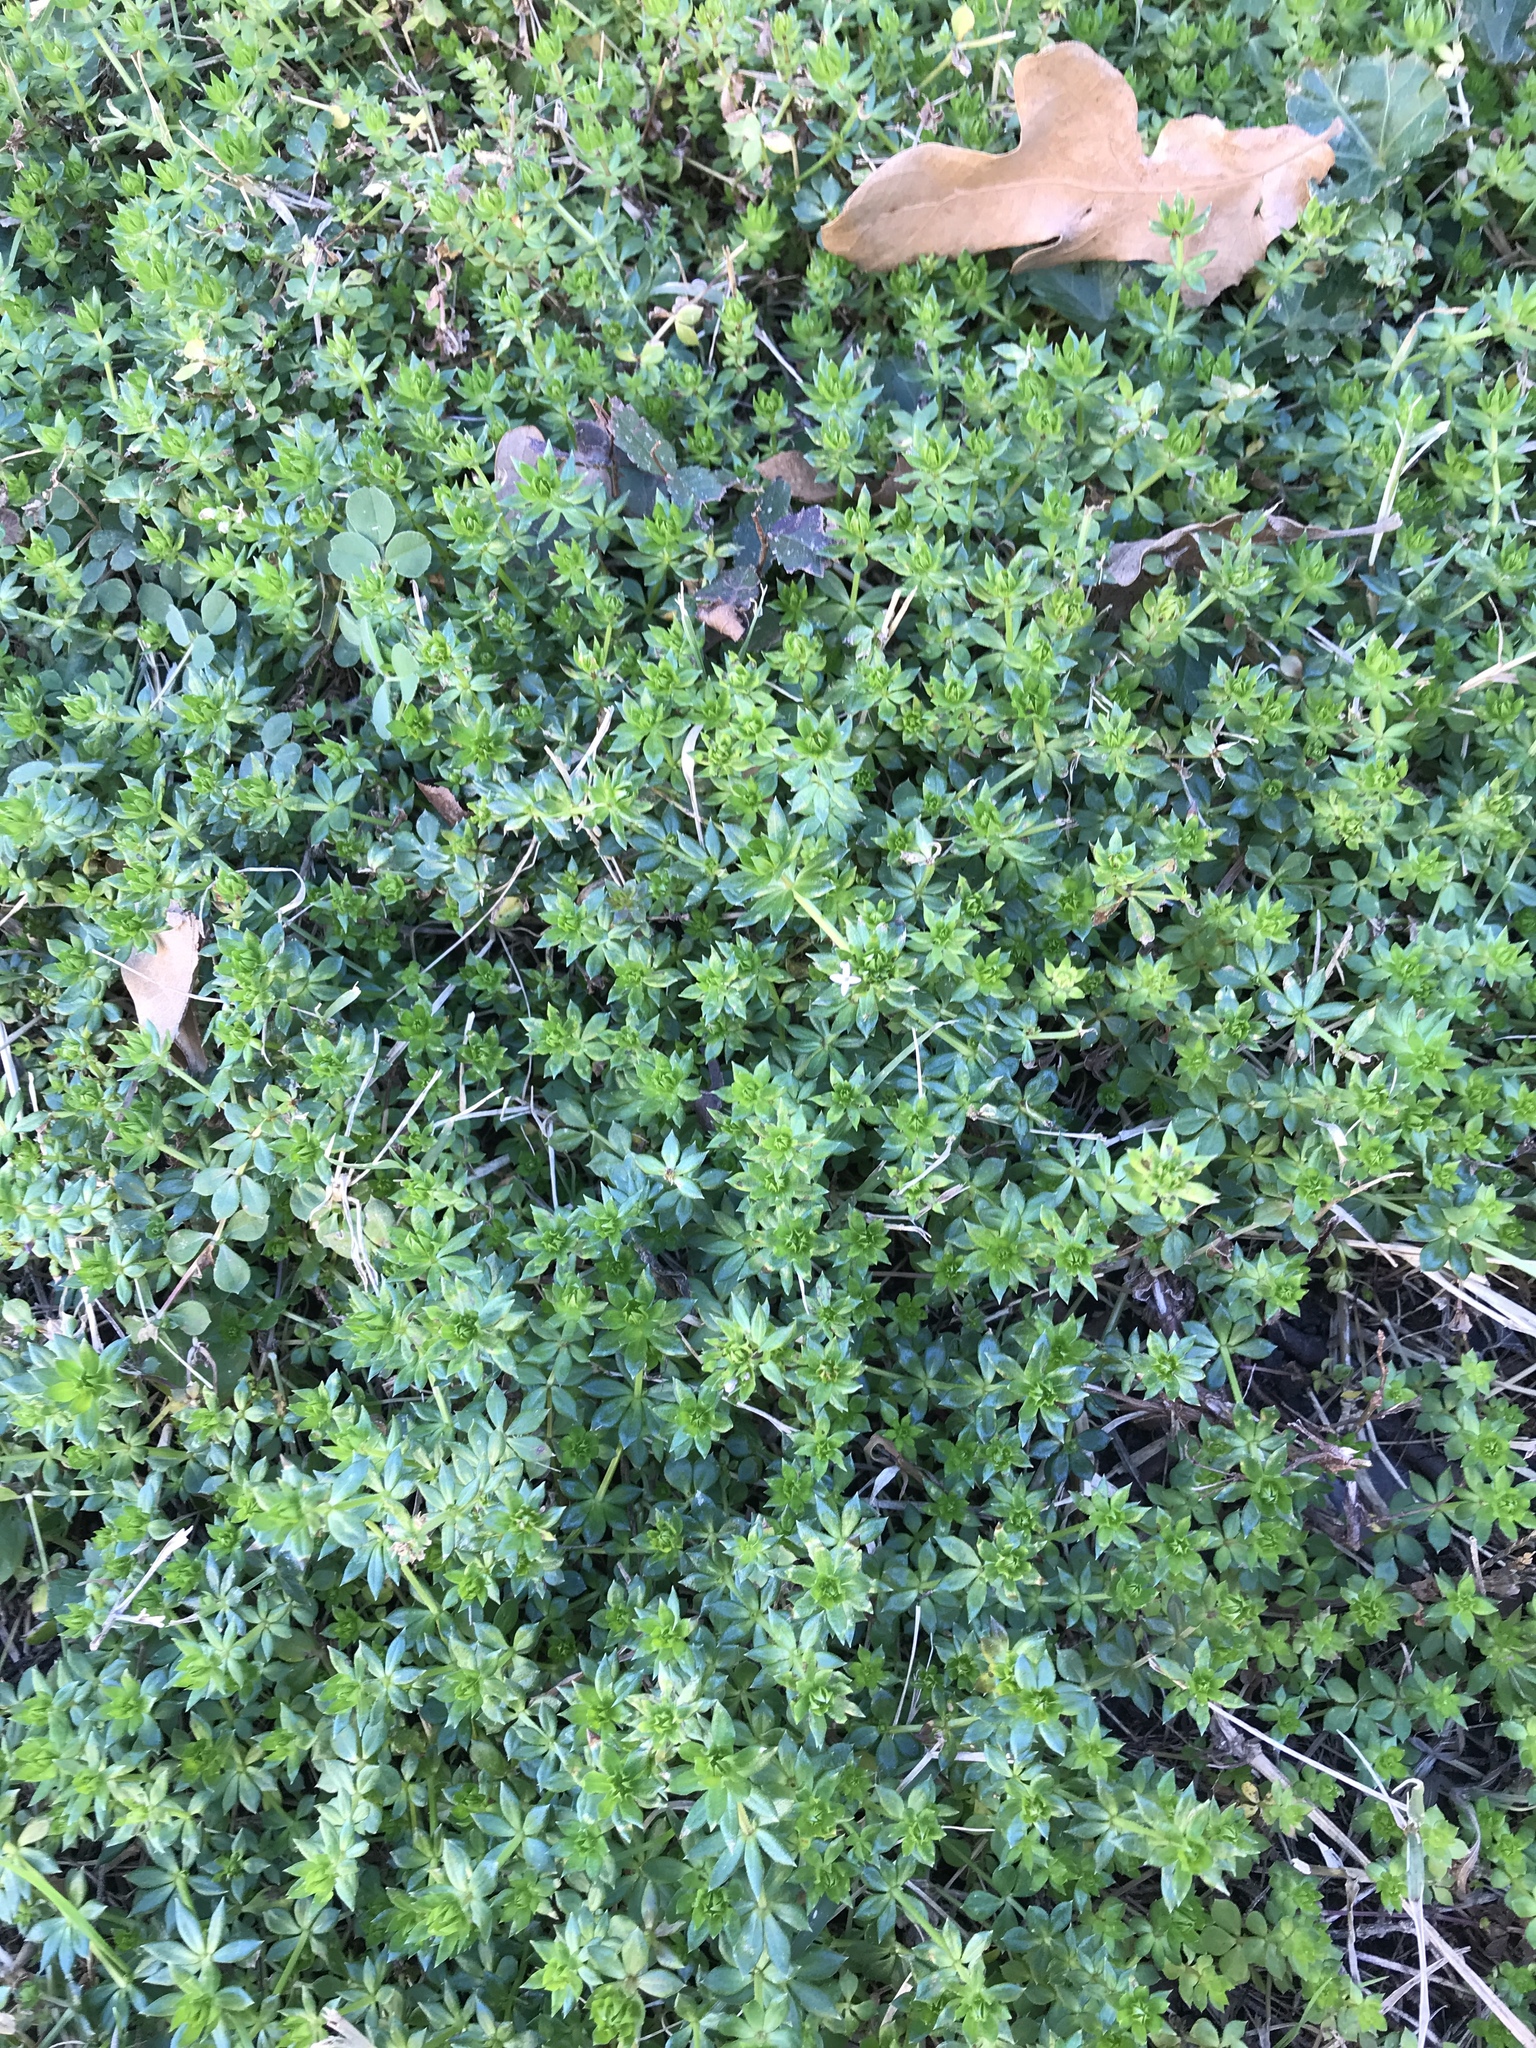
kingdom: Plantae
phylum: Tracheophyta
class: Magnoliopsida
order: Gentianales
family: Rubiaceae
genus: Sherardia
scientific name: Sherardia arvensis
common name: Field madder
